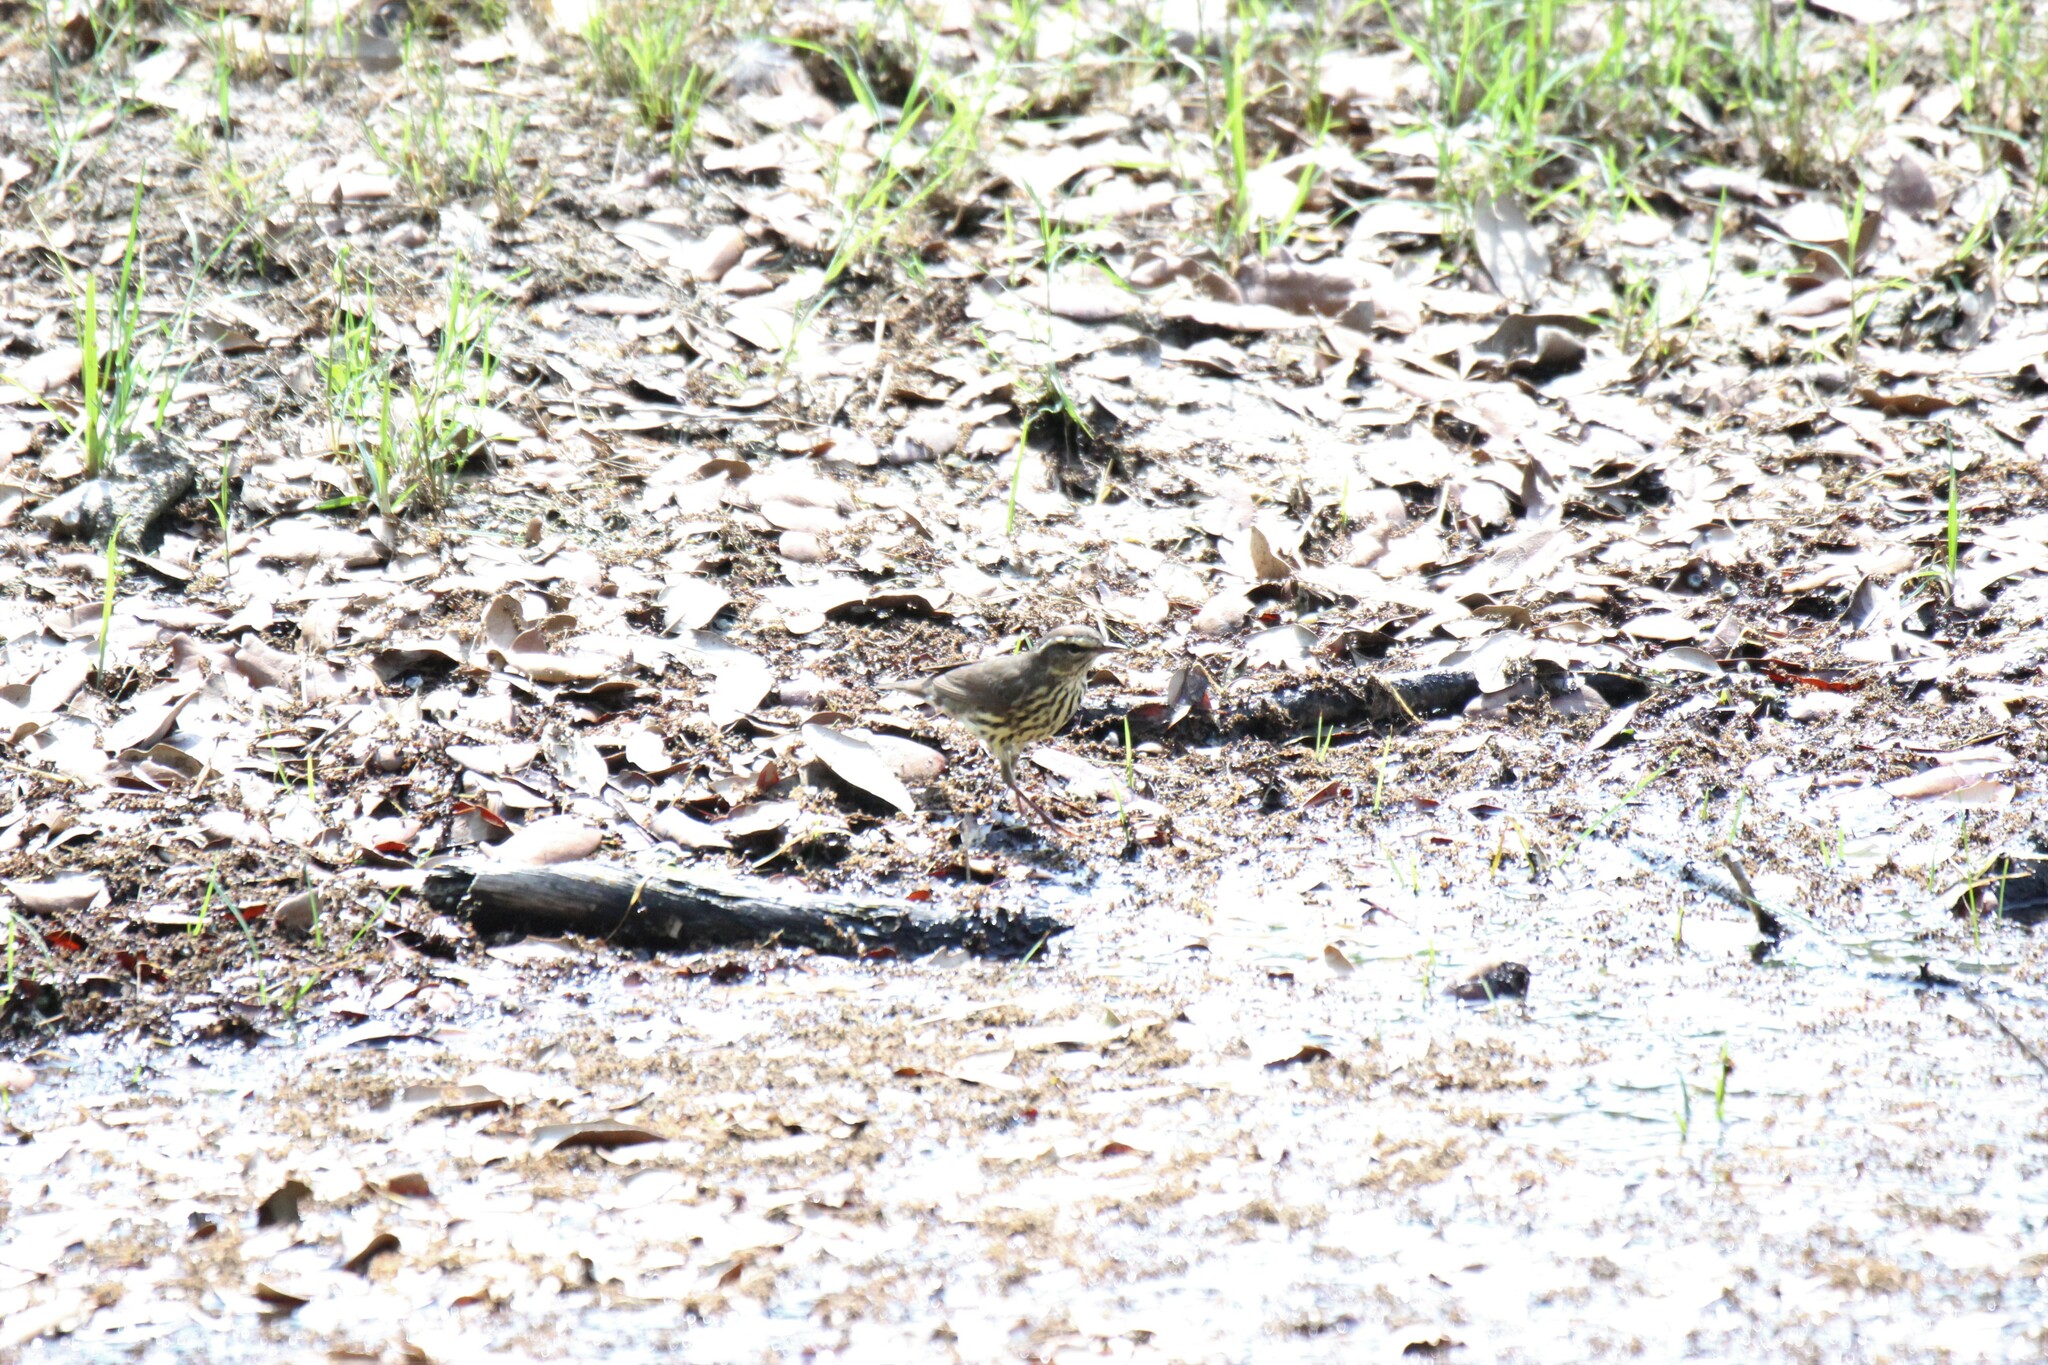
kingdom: Animalia
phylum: Chordata
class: Aves
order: Passeriformes
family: Parulidae
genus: Parkesia
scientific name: Parkesia noveboracensis
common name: Northern waterthrush
